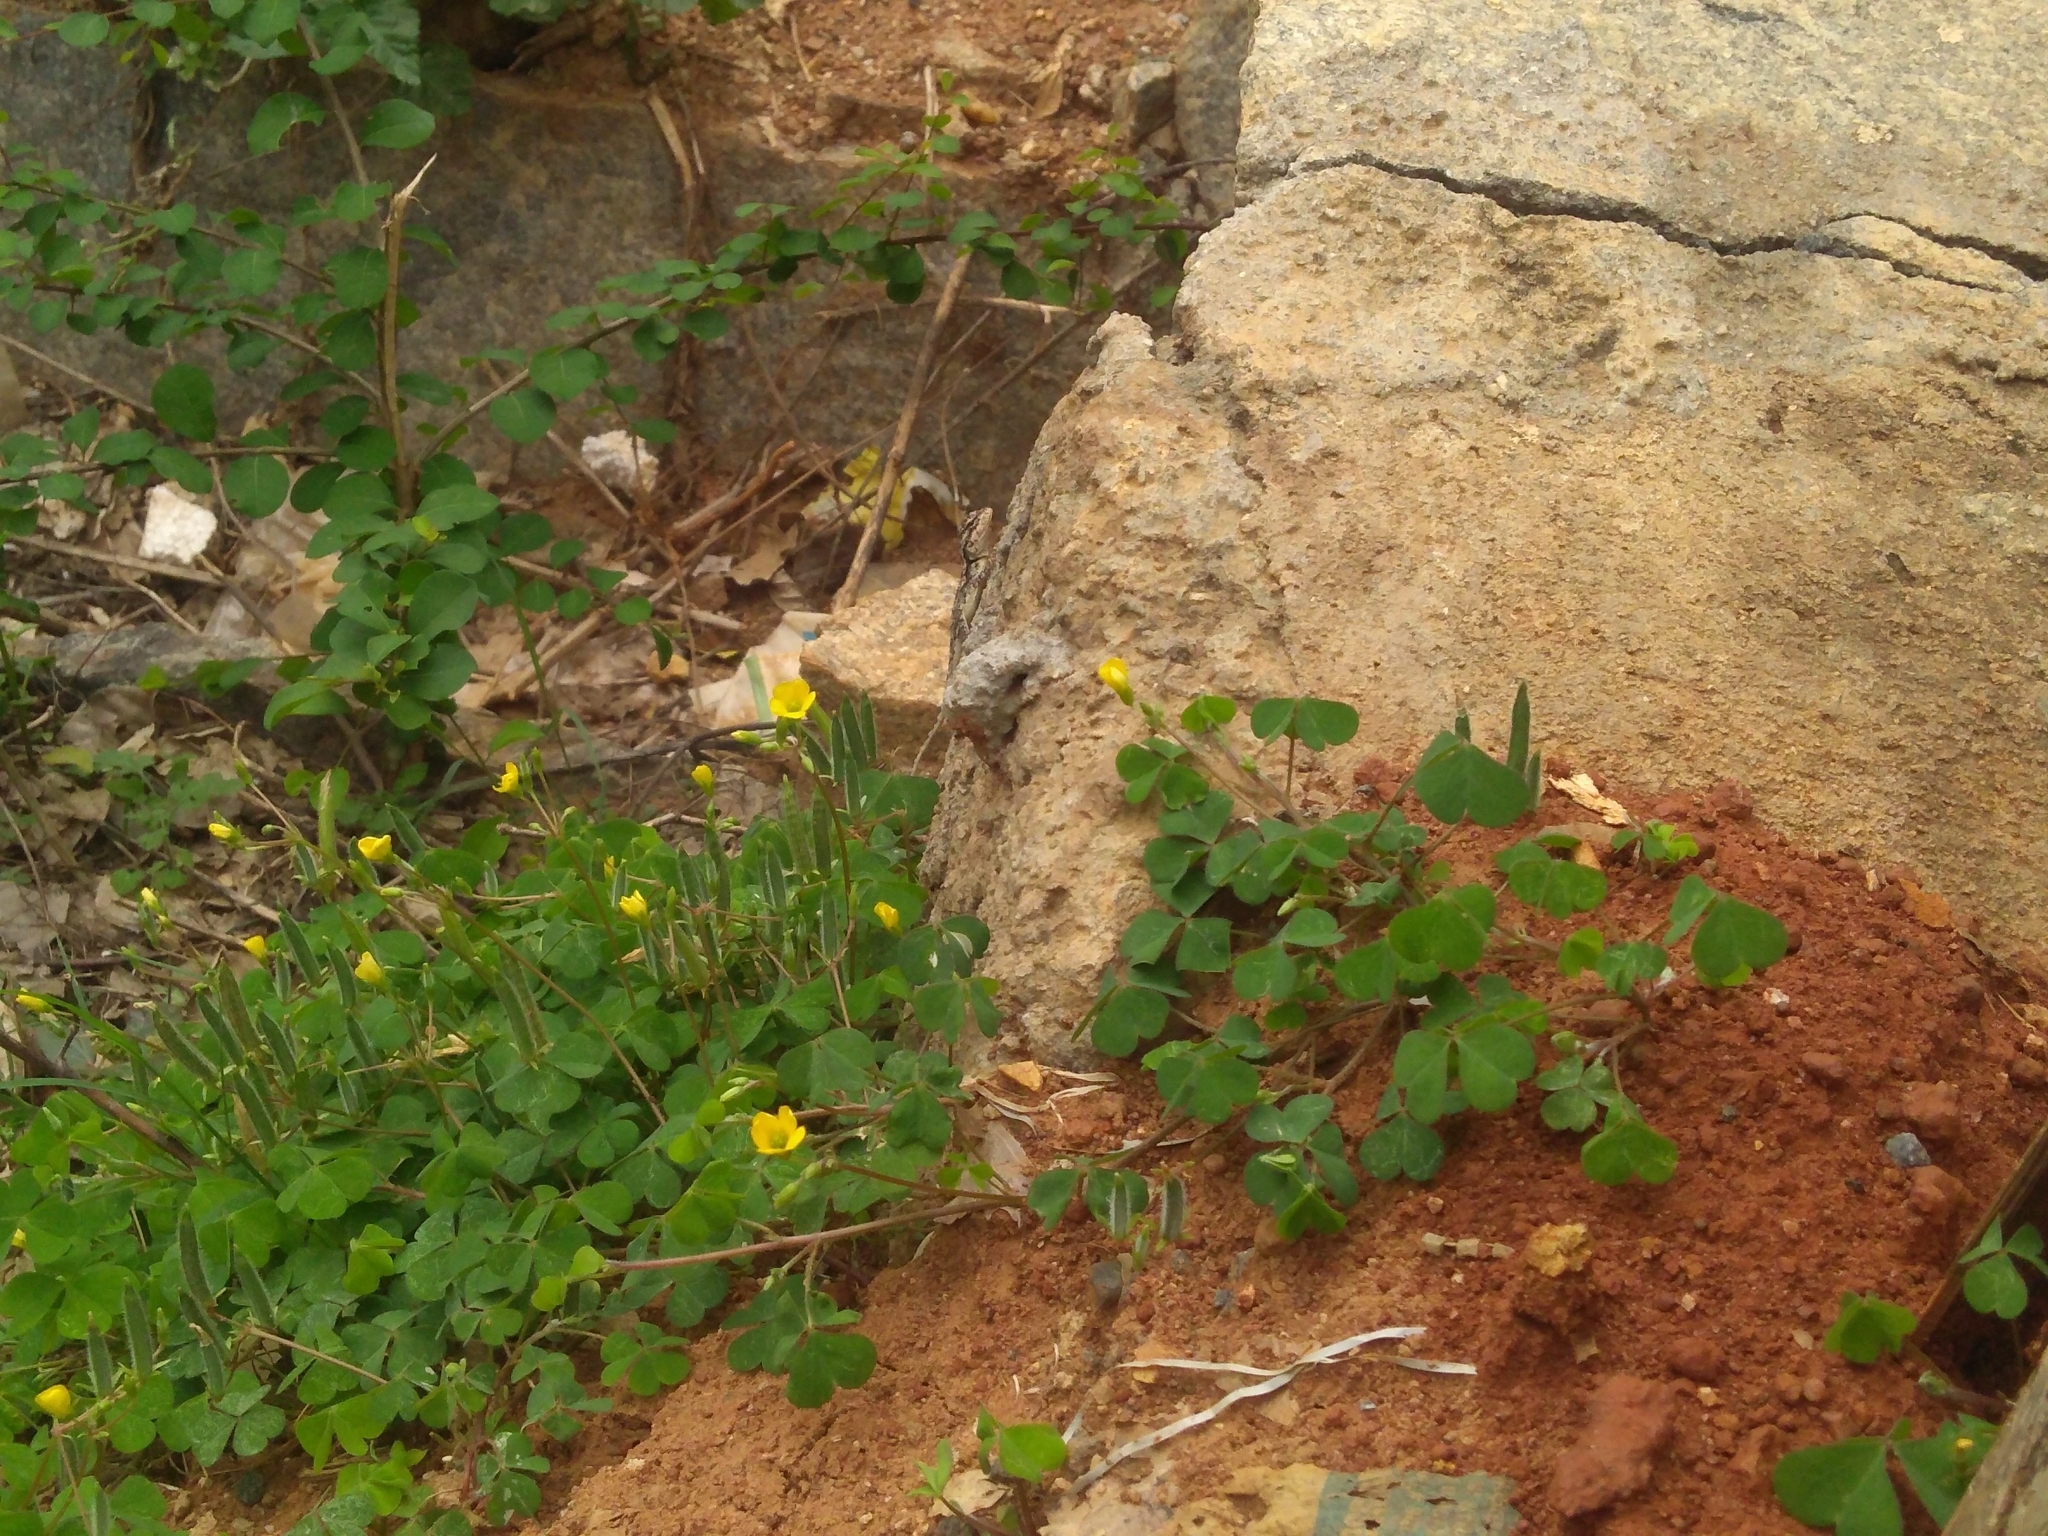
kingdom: Animalia
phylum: Chordata
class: Squamata
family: Agamidae
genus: Psammophilus
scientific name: Psammophilus dorsalis
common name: South indian rock agama
